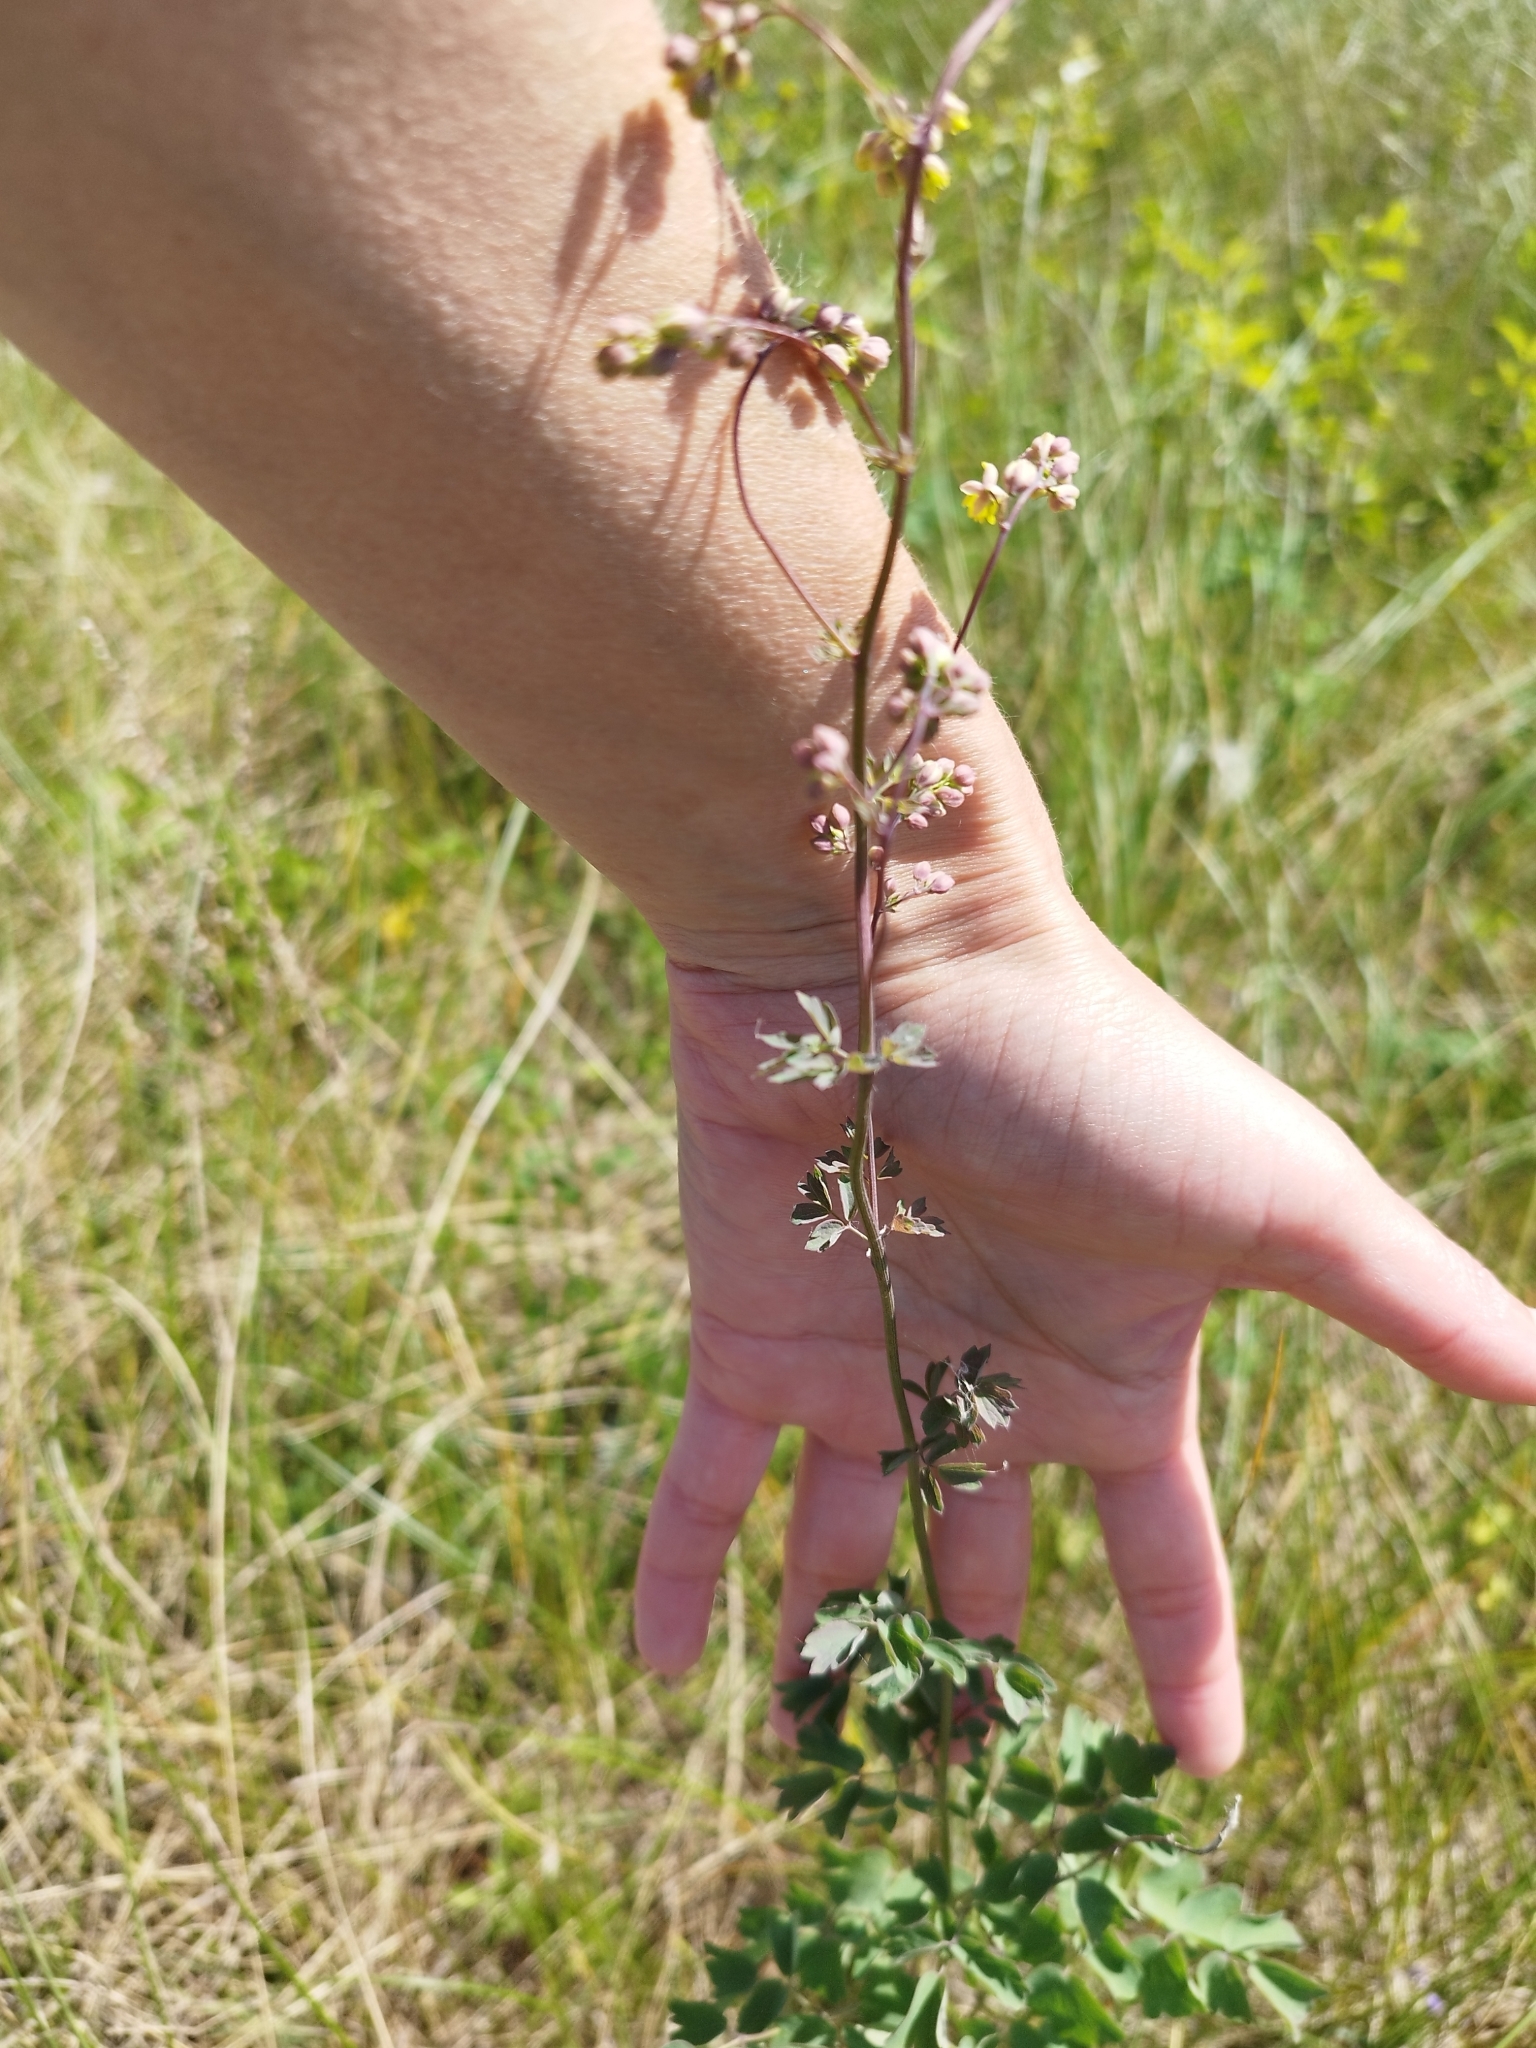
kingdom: Plantae
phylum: Tracheophyta
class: Magnoliopsida
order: Ranunculales
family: Ranunculaceae
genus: Thalictrum
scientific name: Thalictrum simplex
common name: Small meadow-rue
